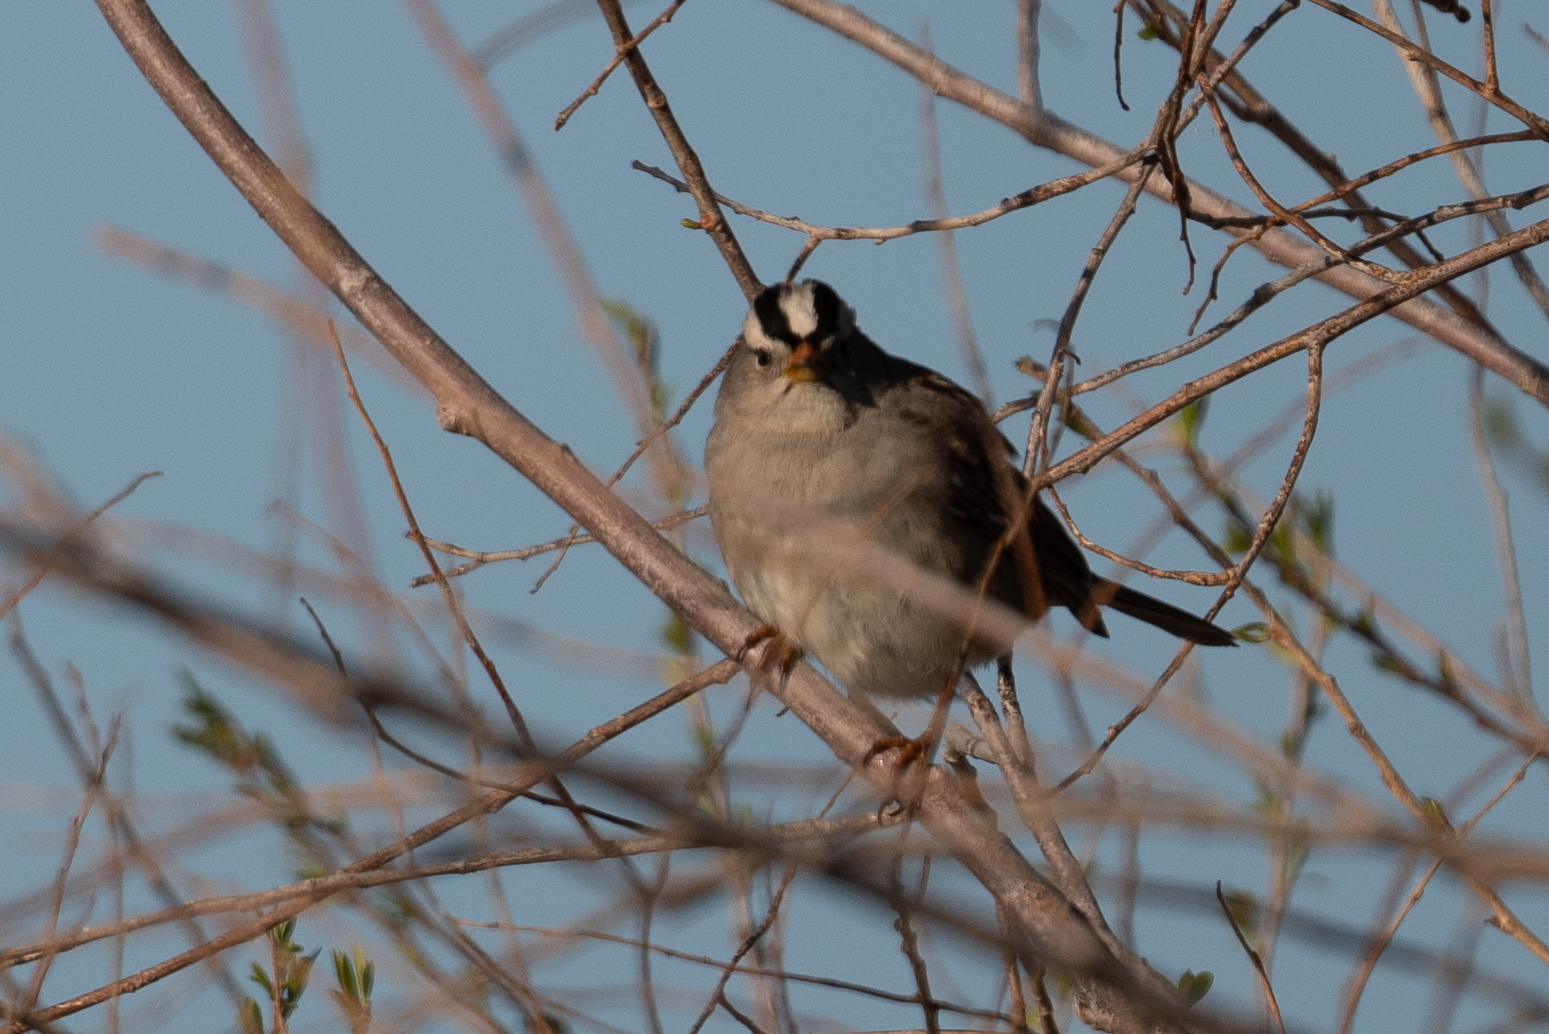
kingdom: Animalia
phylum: Chordata
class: Aves
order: Passeriformes
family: Passerellidae
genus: Zonotrichia
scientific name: Zonotrichia leucophrys
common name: White-crowned sparrow
